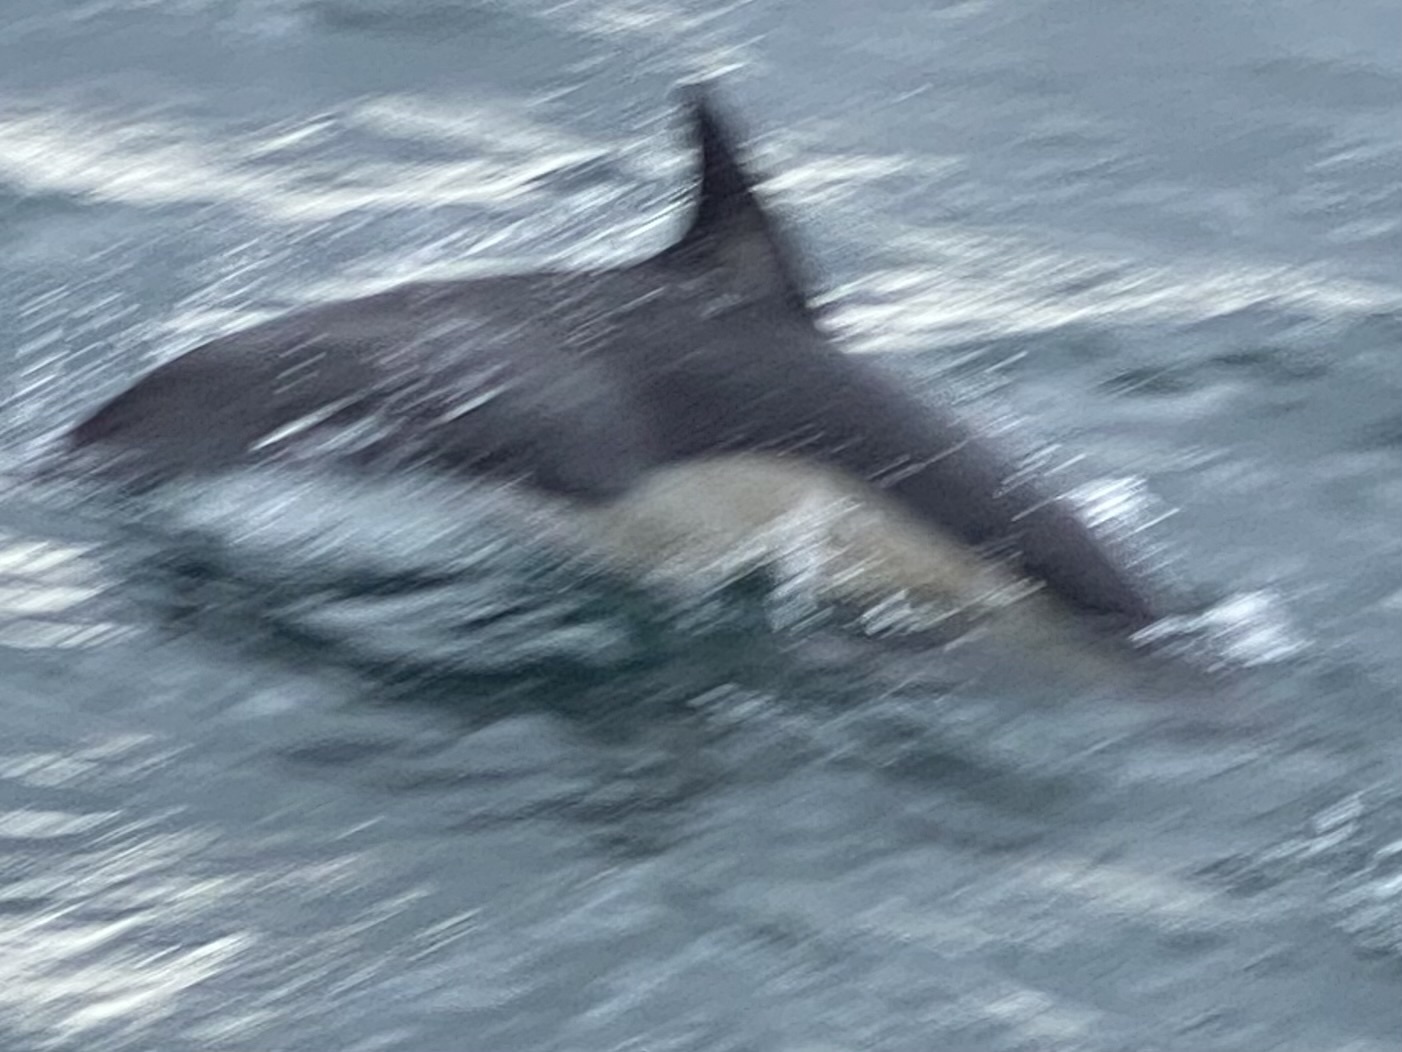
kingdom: Animalia
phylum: Chordata
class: Mammalia
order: Cetacea
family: Delphinidae
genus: Delphinus
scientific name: Delphinus delphis
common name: Common dolphin
